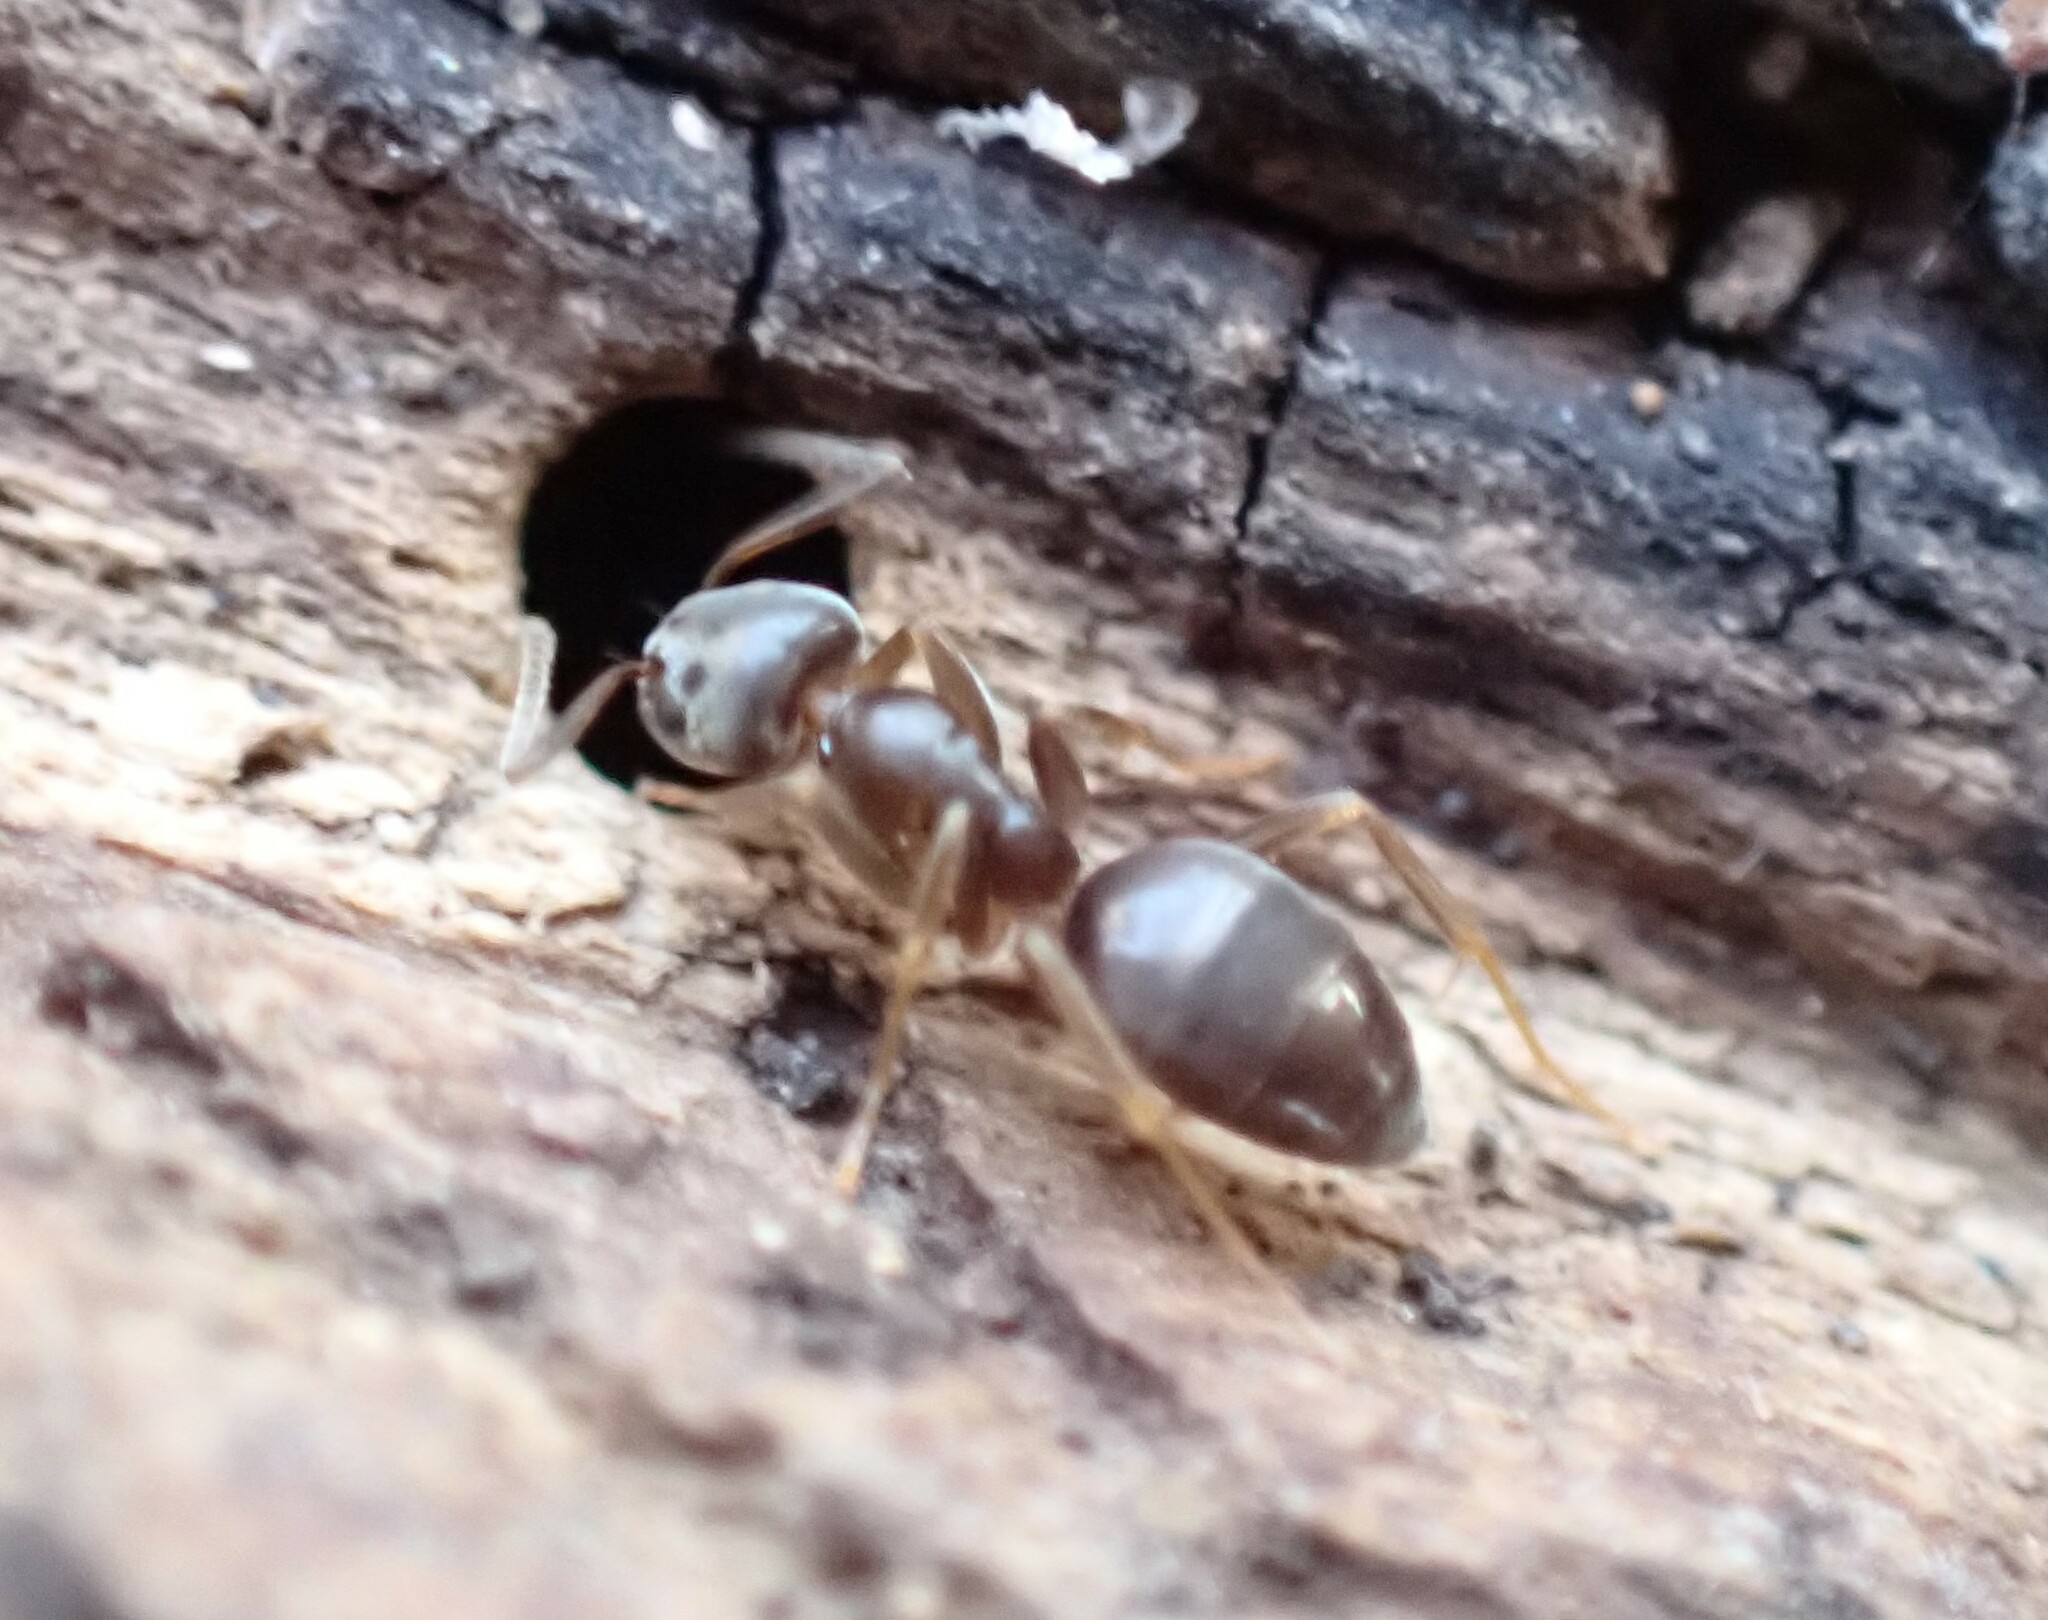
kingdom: Animalia
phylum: Arthropoda
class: Insecta
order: Hymenoptera
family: Formicidae
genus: Tapinoma
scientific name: Tapinoma sessile
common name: Odorous house ant
